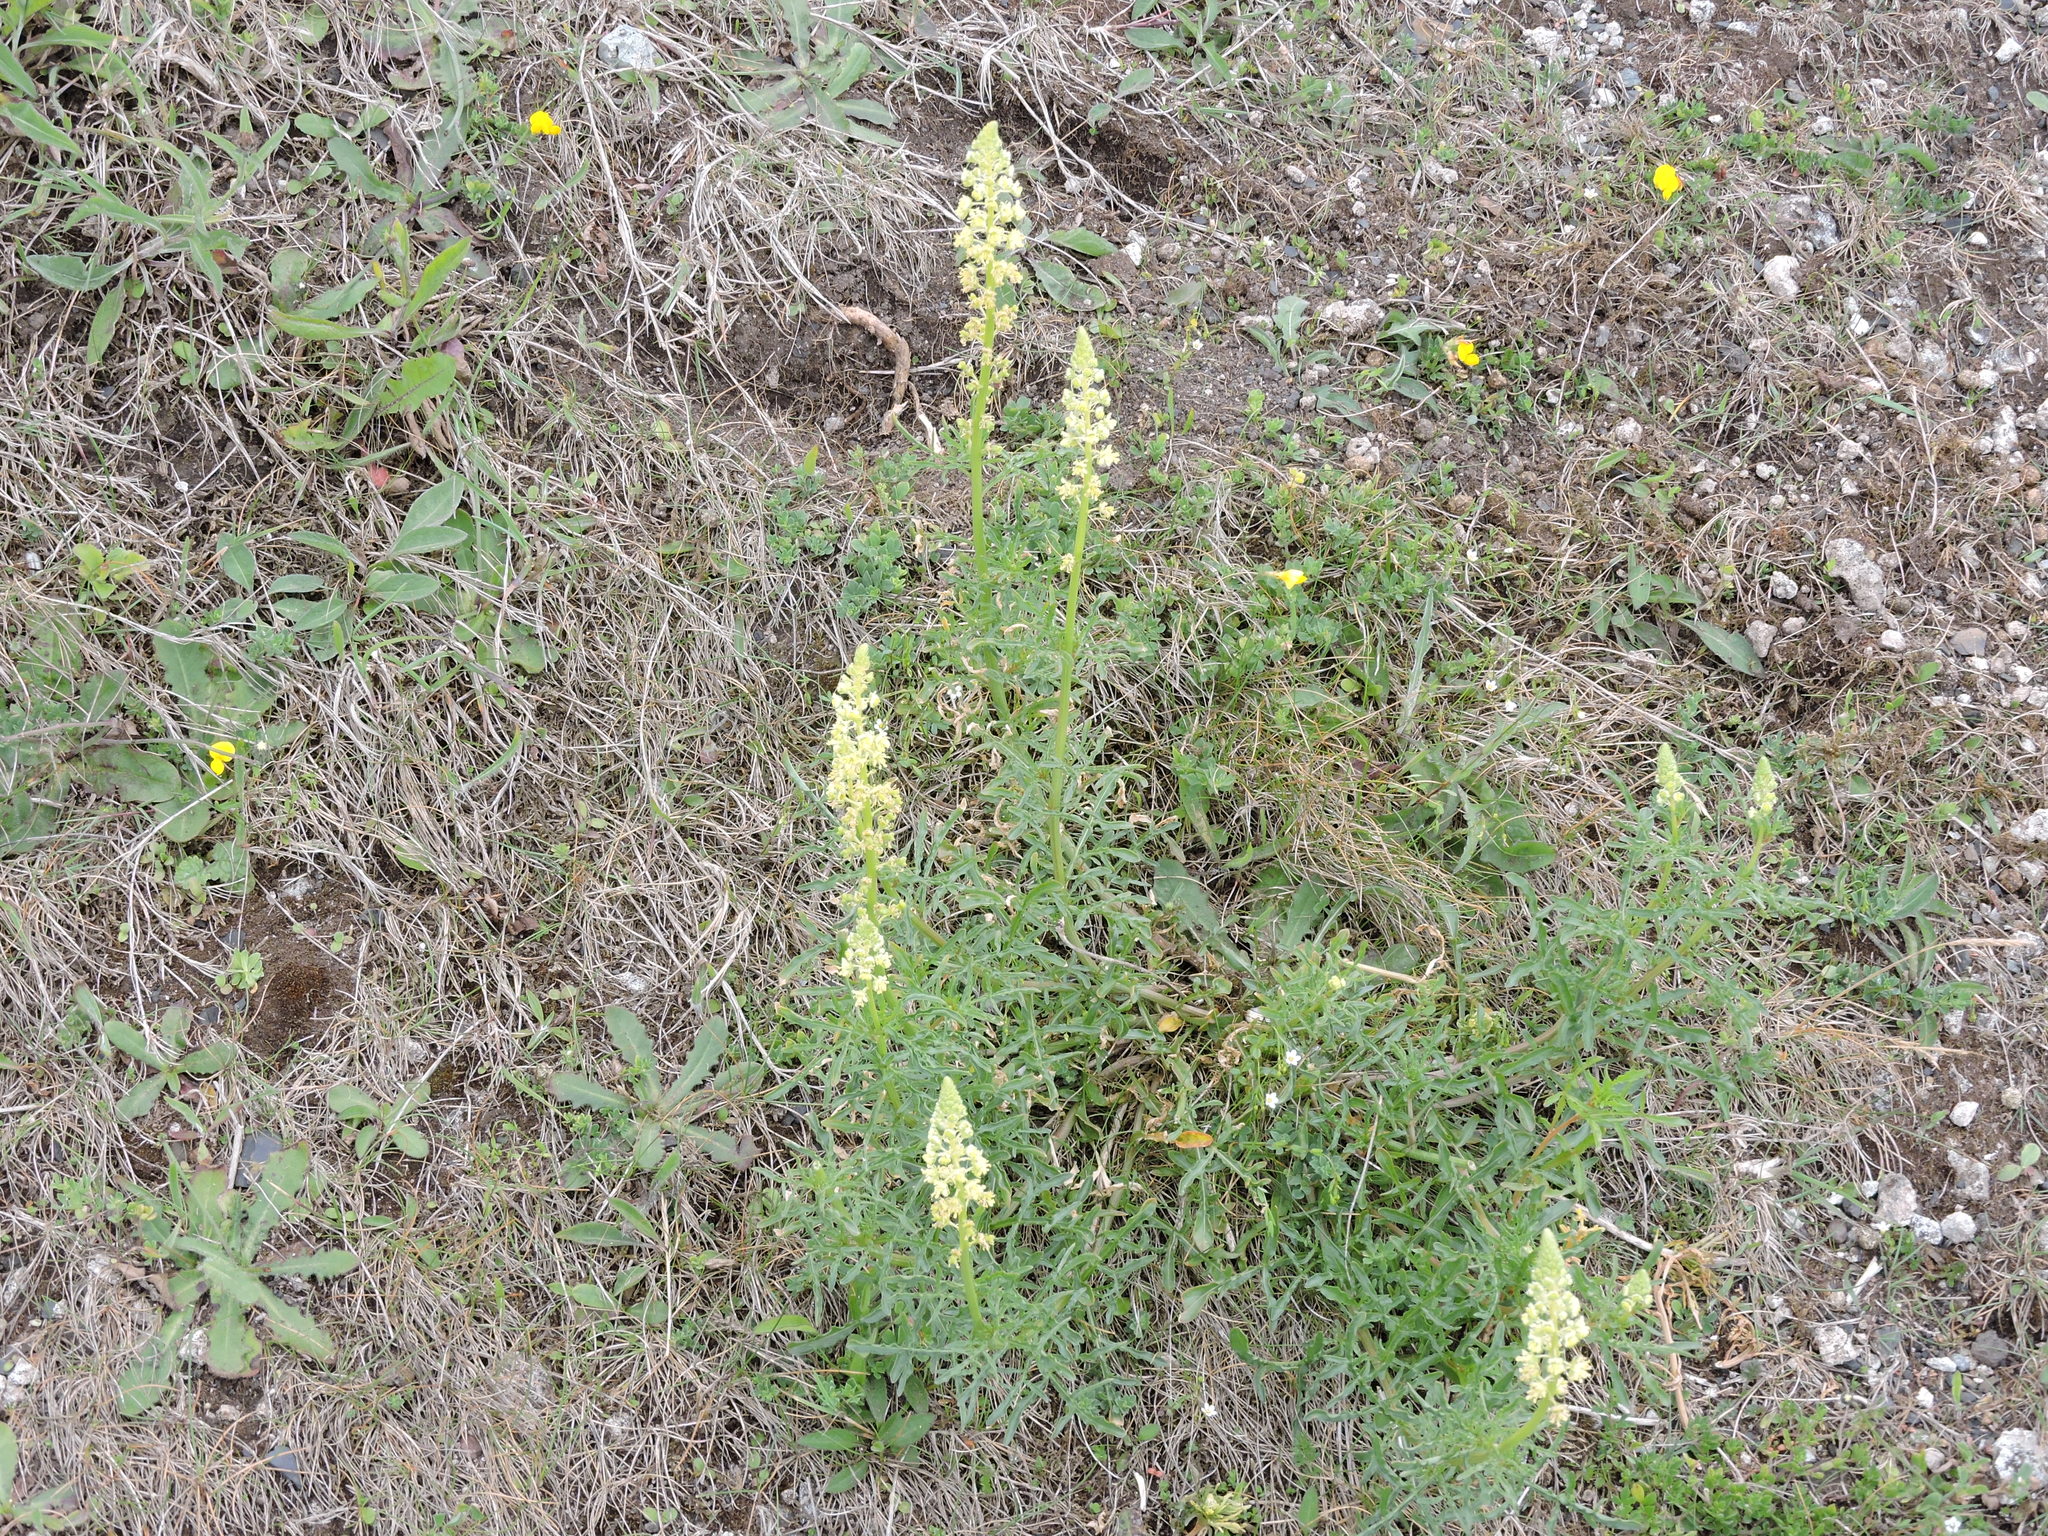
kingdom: Plantae
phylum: Tracheophyta
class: Magnoliopsida
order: Brassicales
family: Resedaceae
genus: Reseda
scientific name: Reseda lutea
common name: Wild mignonette
